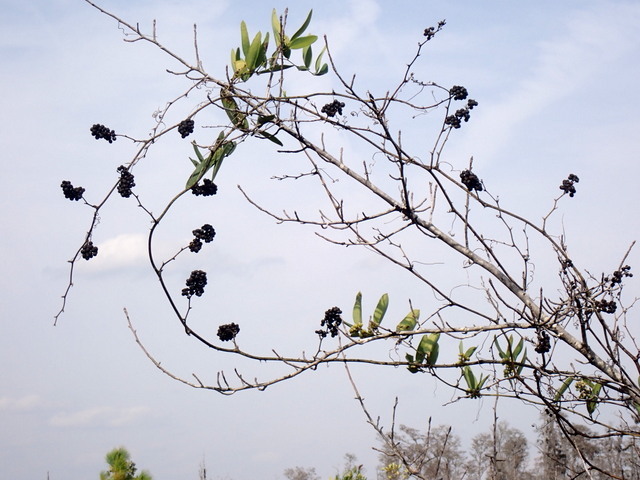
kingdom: Plantae
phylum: Tracheophyta
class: Liliopsida
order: Liliales
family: Smilacaceae
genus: Smilax
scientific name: Smilax laurifolia
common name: Bamboovine
